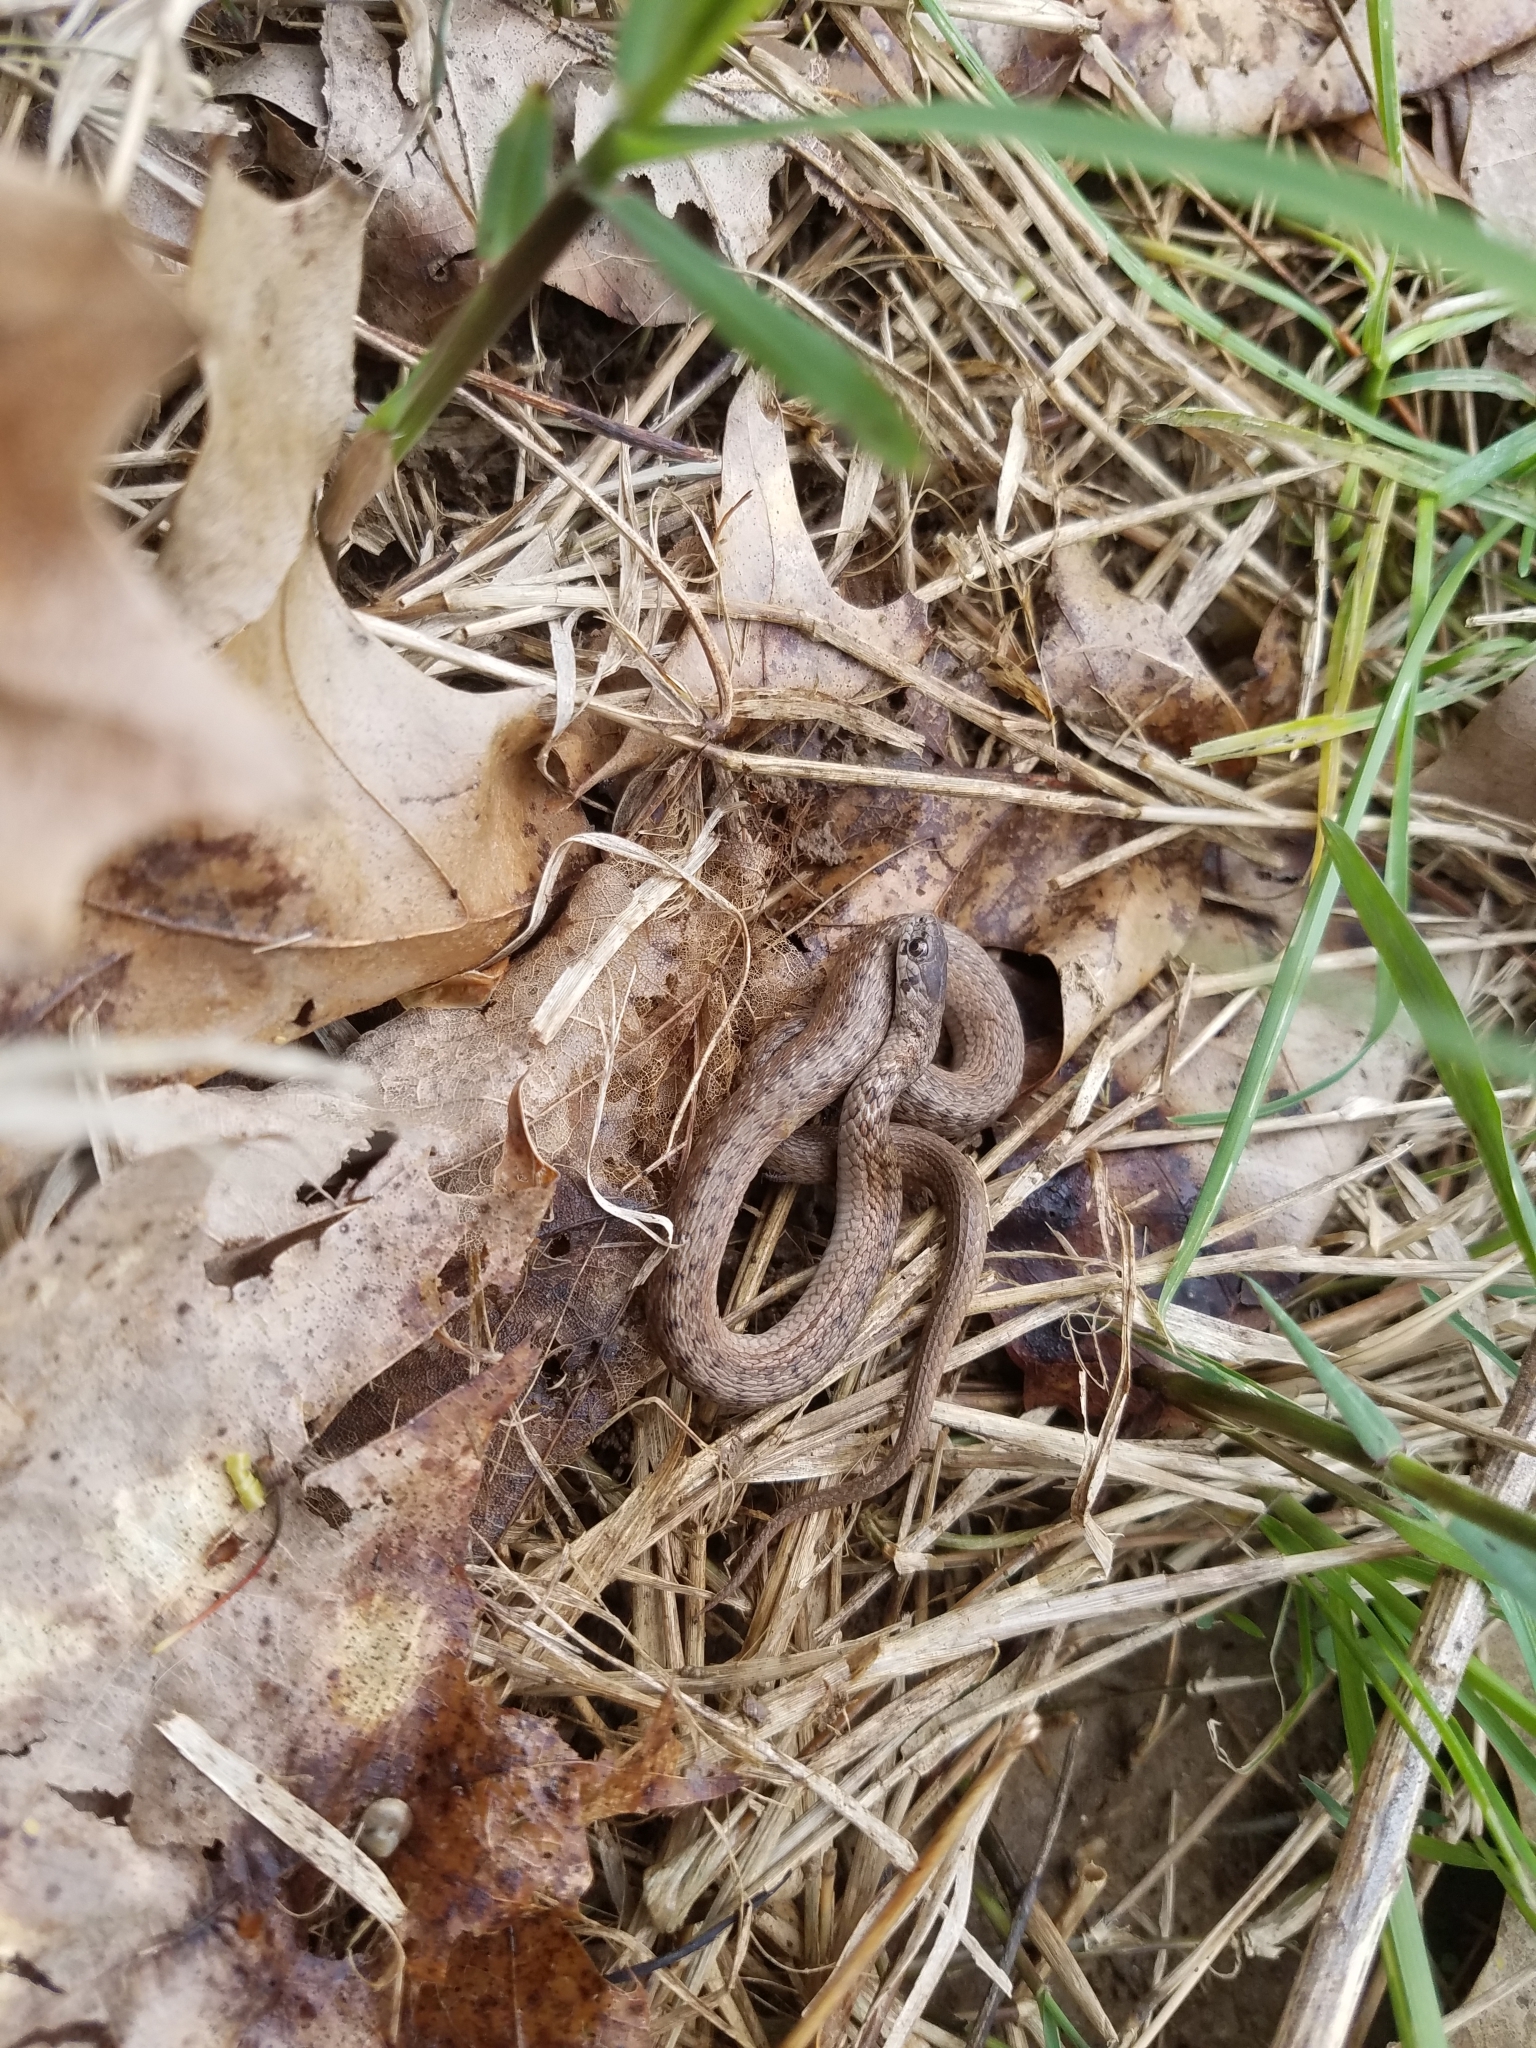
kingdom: Animalia
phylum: Chordata
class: Squamata
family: Colubridae
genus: Storeria
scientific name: Storeria dekayi
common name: (dekay’s) brown snake
